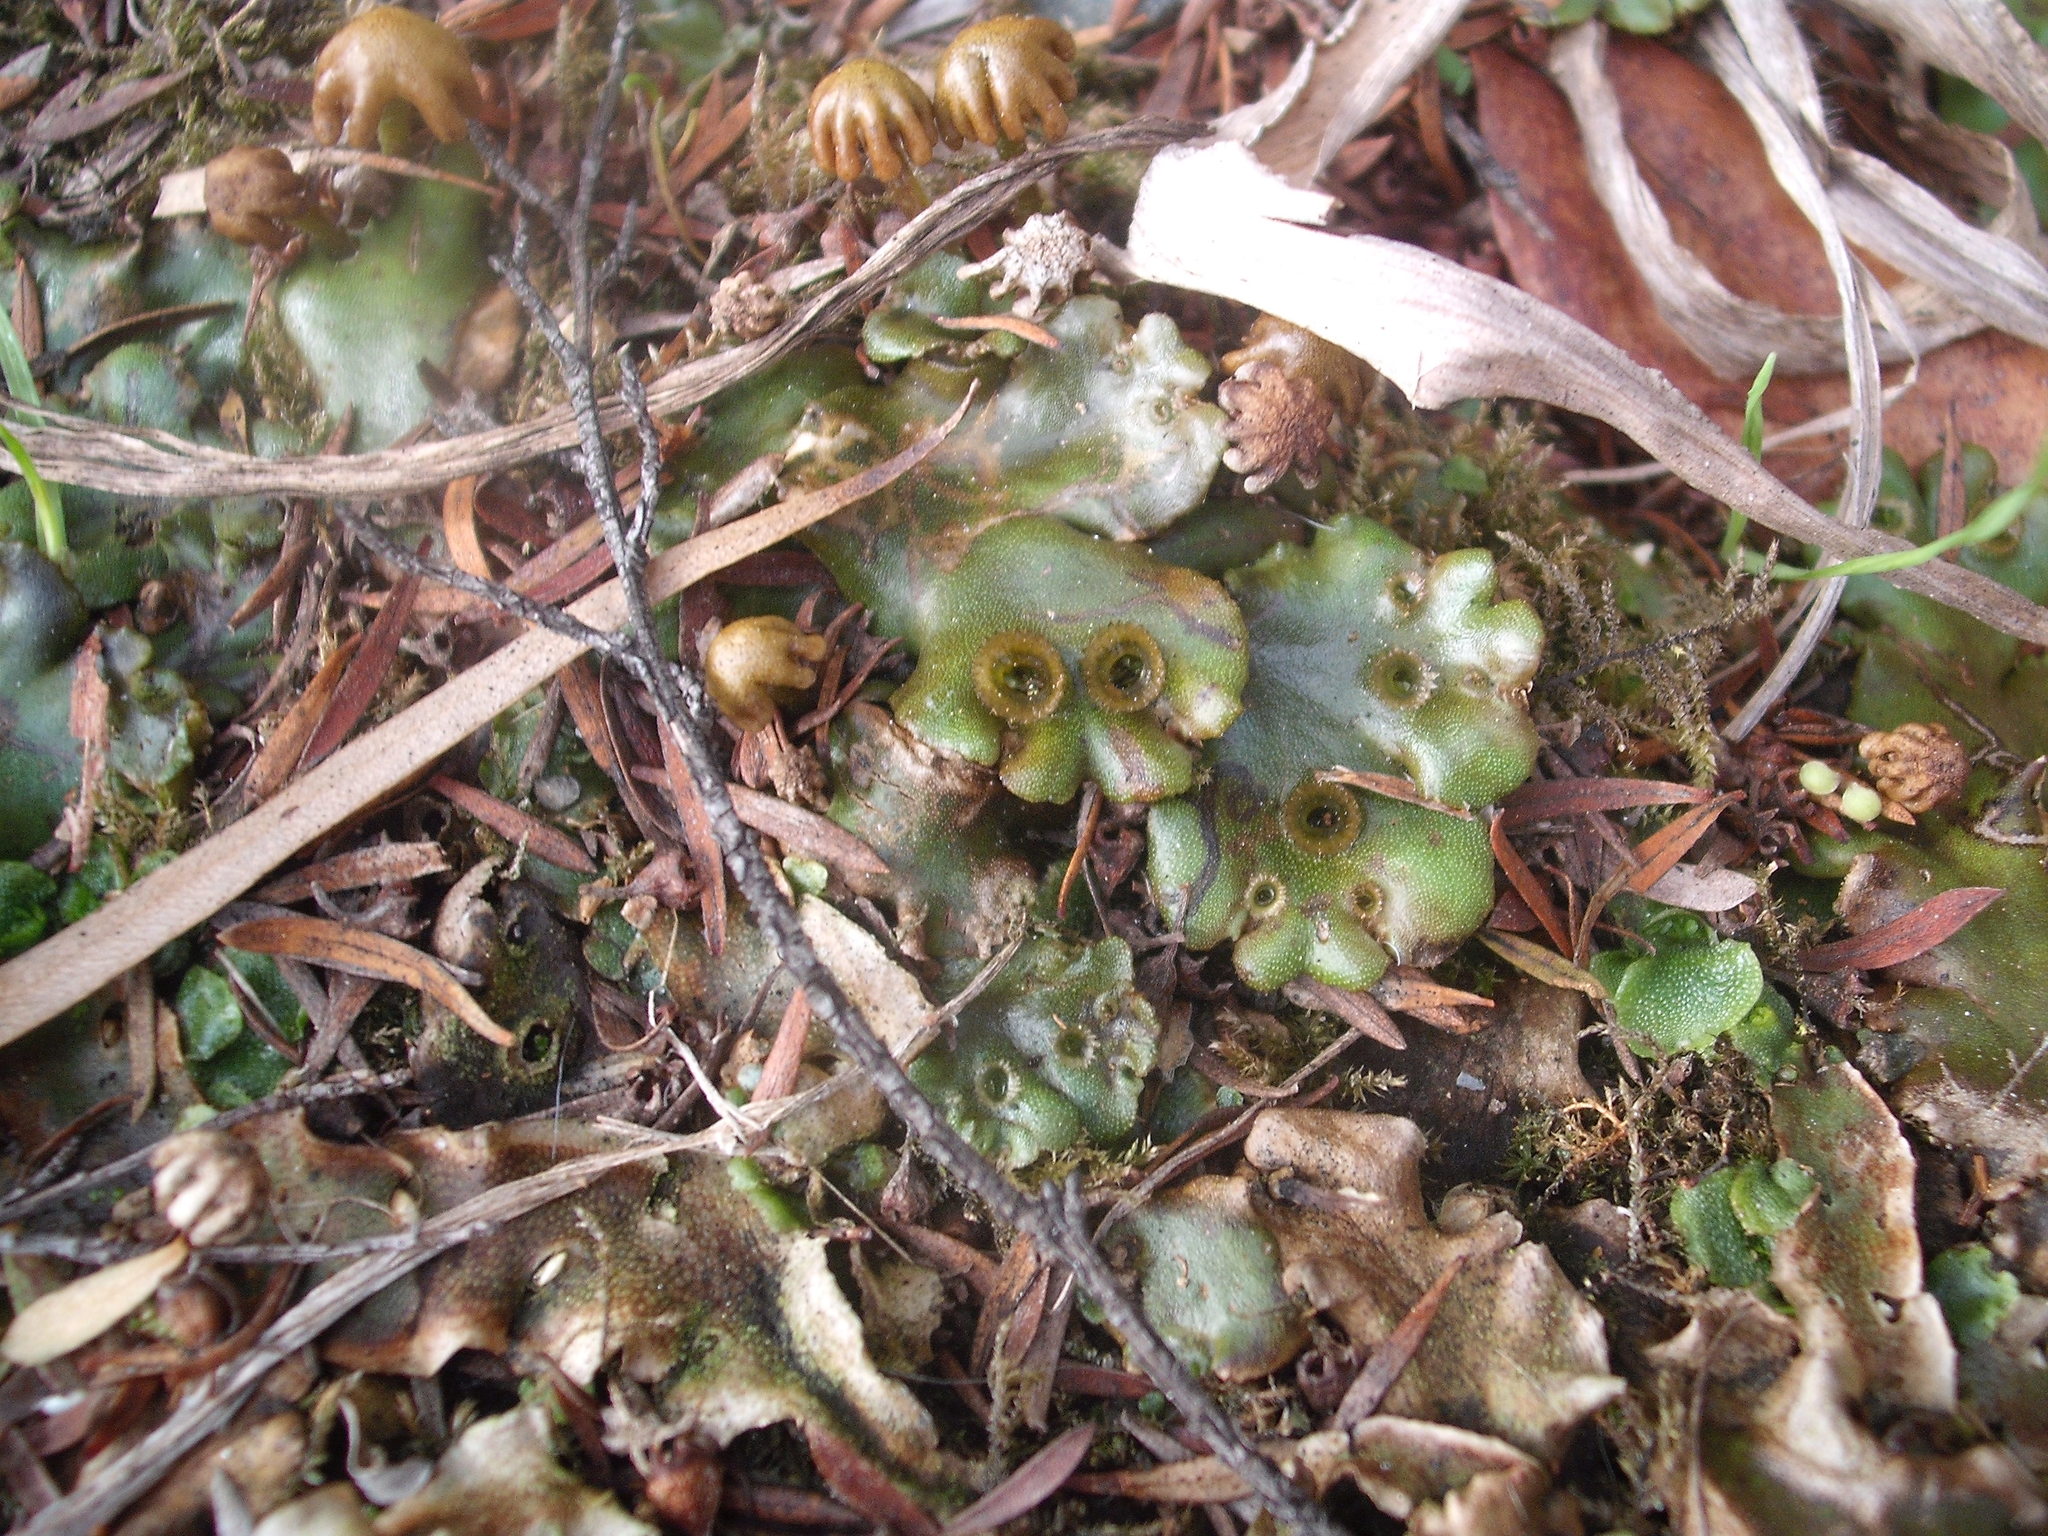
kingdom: Plantae
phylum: Marchantiophyta
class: Marchantiopsida
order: Marchantiales
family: Marchantiaceae
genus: Marchantia
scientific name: Marchantia berteroana
